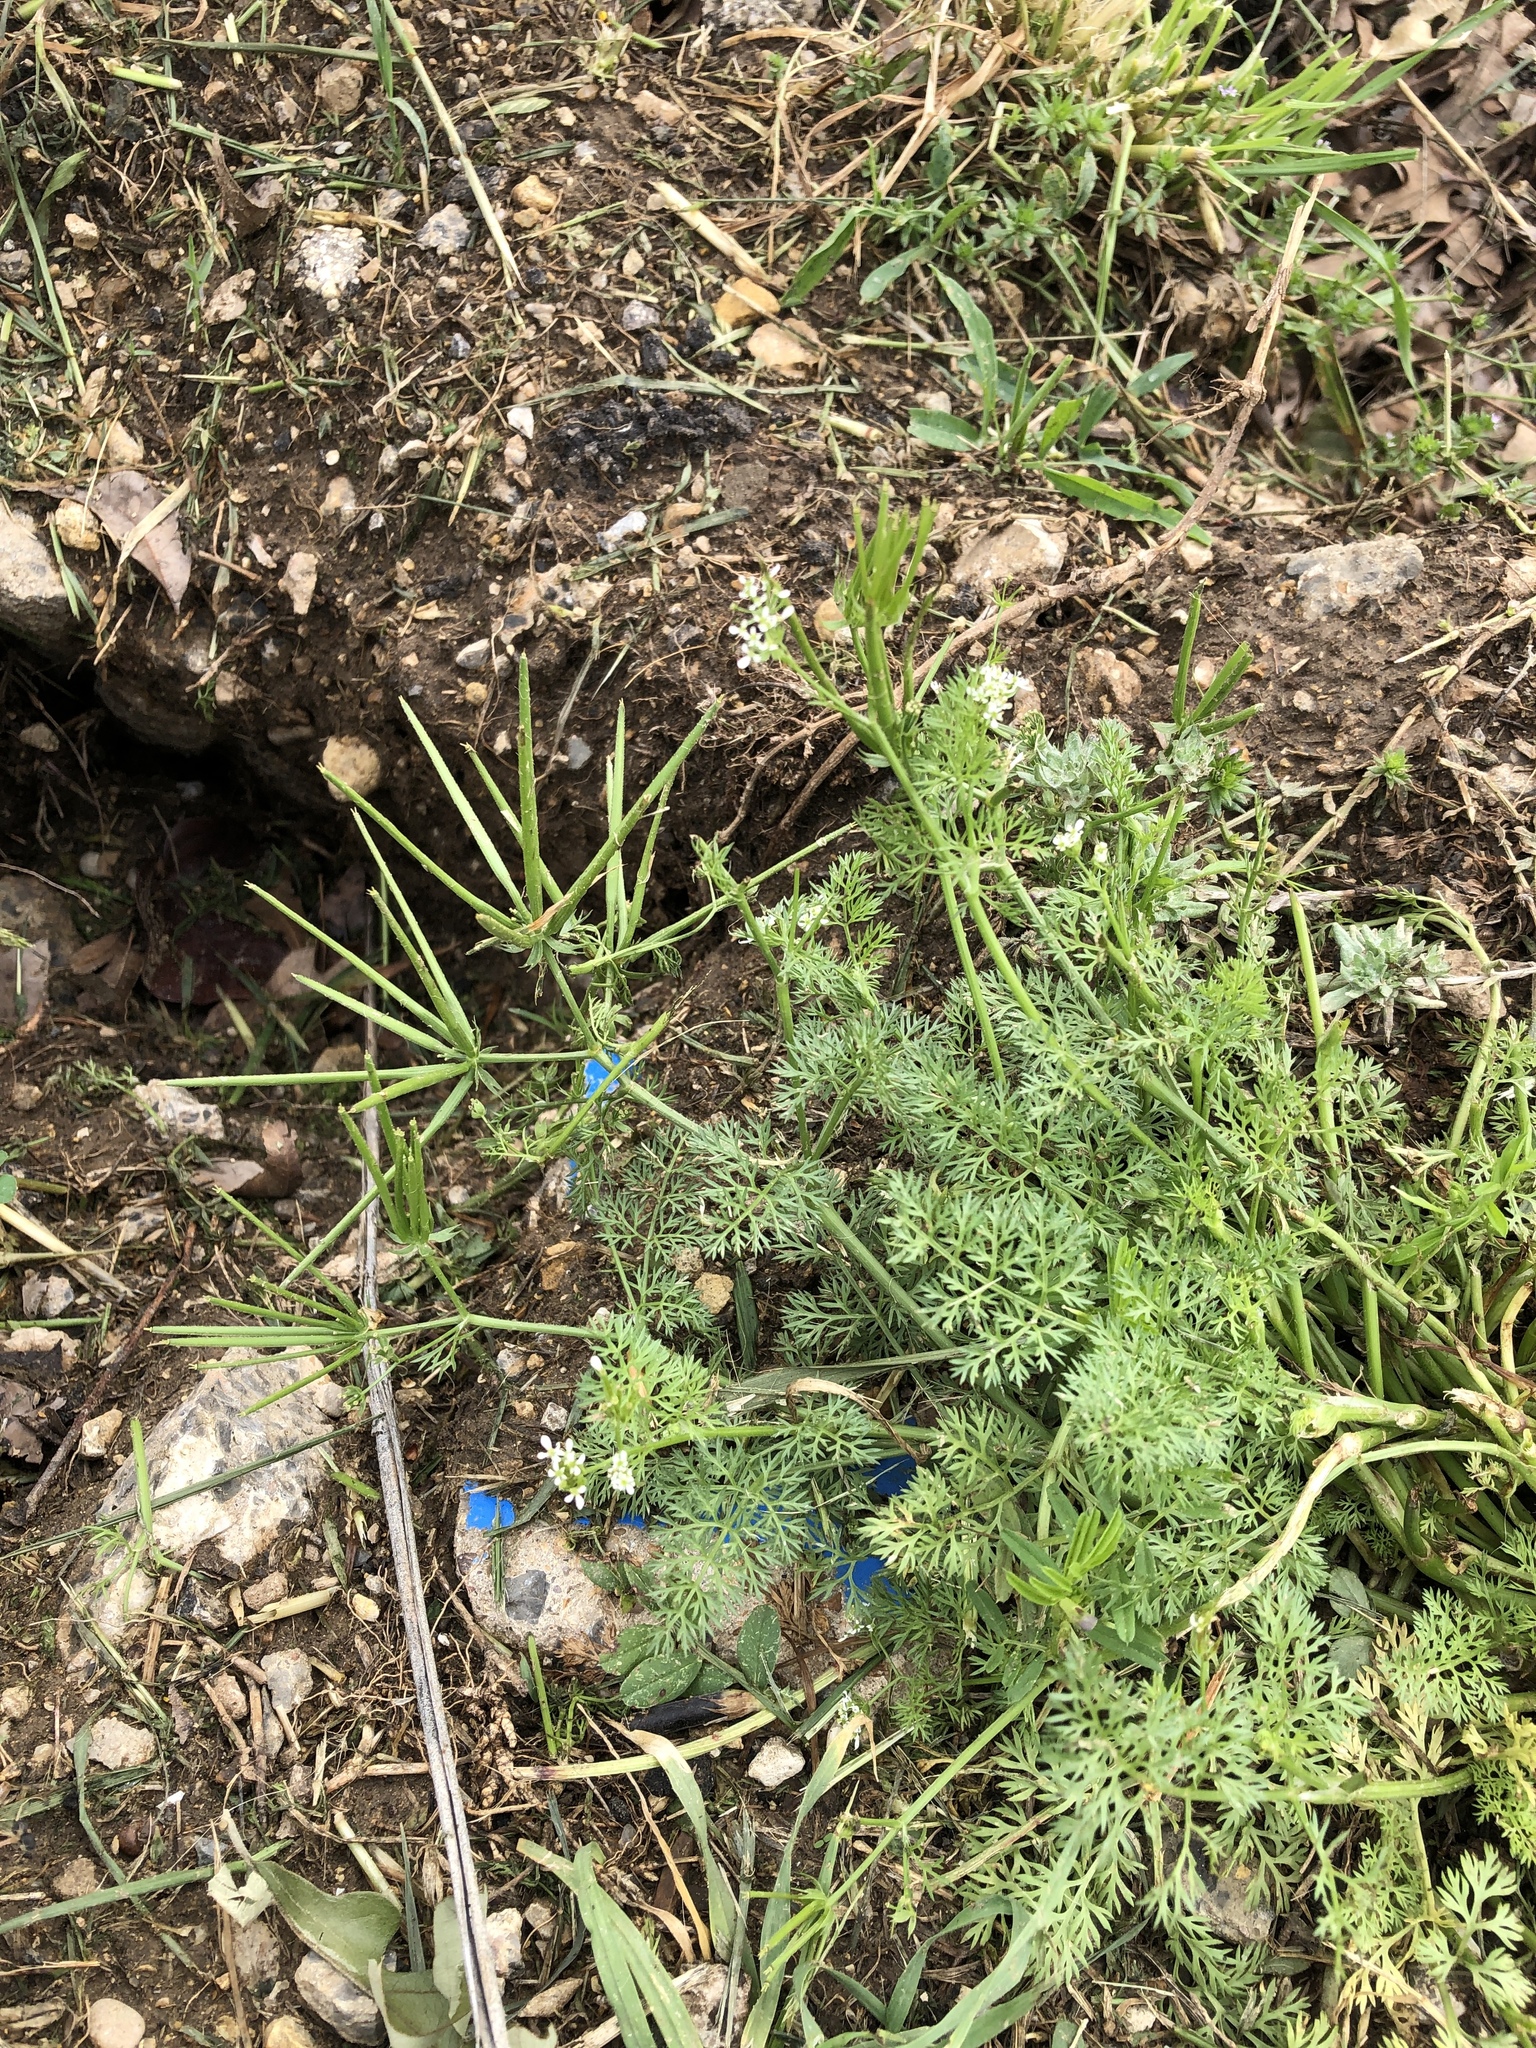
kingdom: Plantae
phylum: Tracheophyta
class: Magnoliopsida
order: Apiales
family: Apiaceae
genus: Scandix
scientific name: Scandix pecten-veneris
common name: Shepherd's-needle
